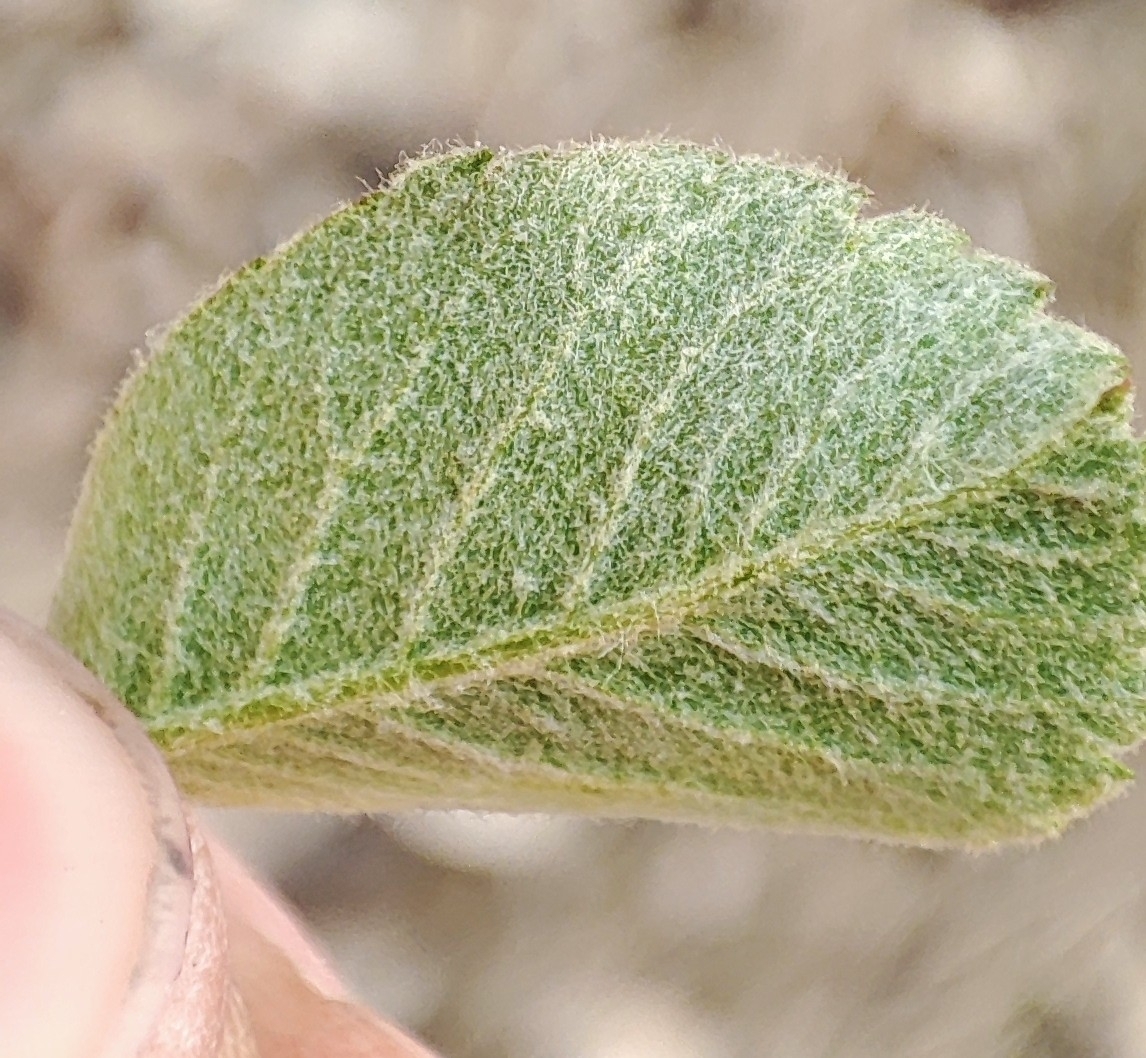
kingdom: Plantae
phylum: Tracheophyta
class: Magnoliopsida
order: Rosales
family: Rosaceae
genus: Amelanchier
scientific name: Amelanchier alnifolia
